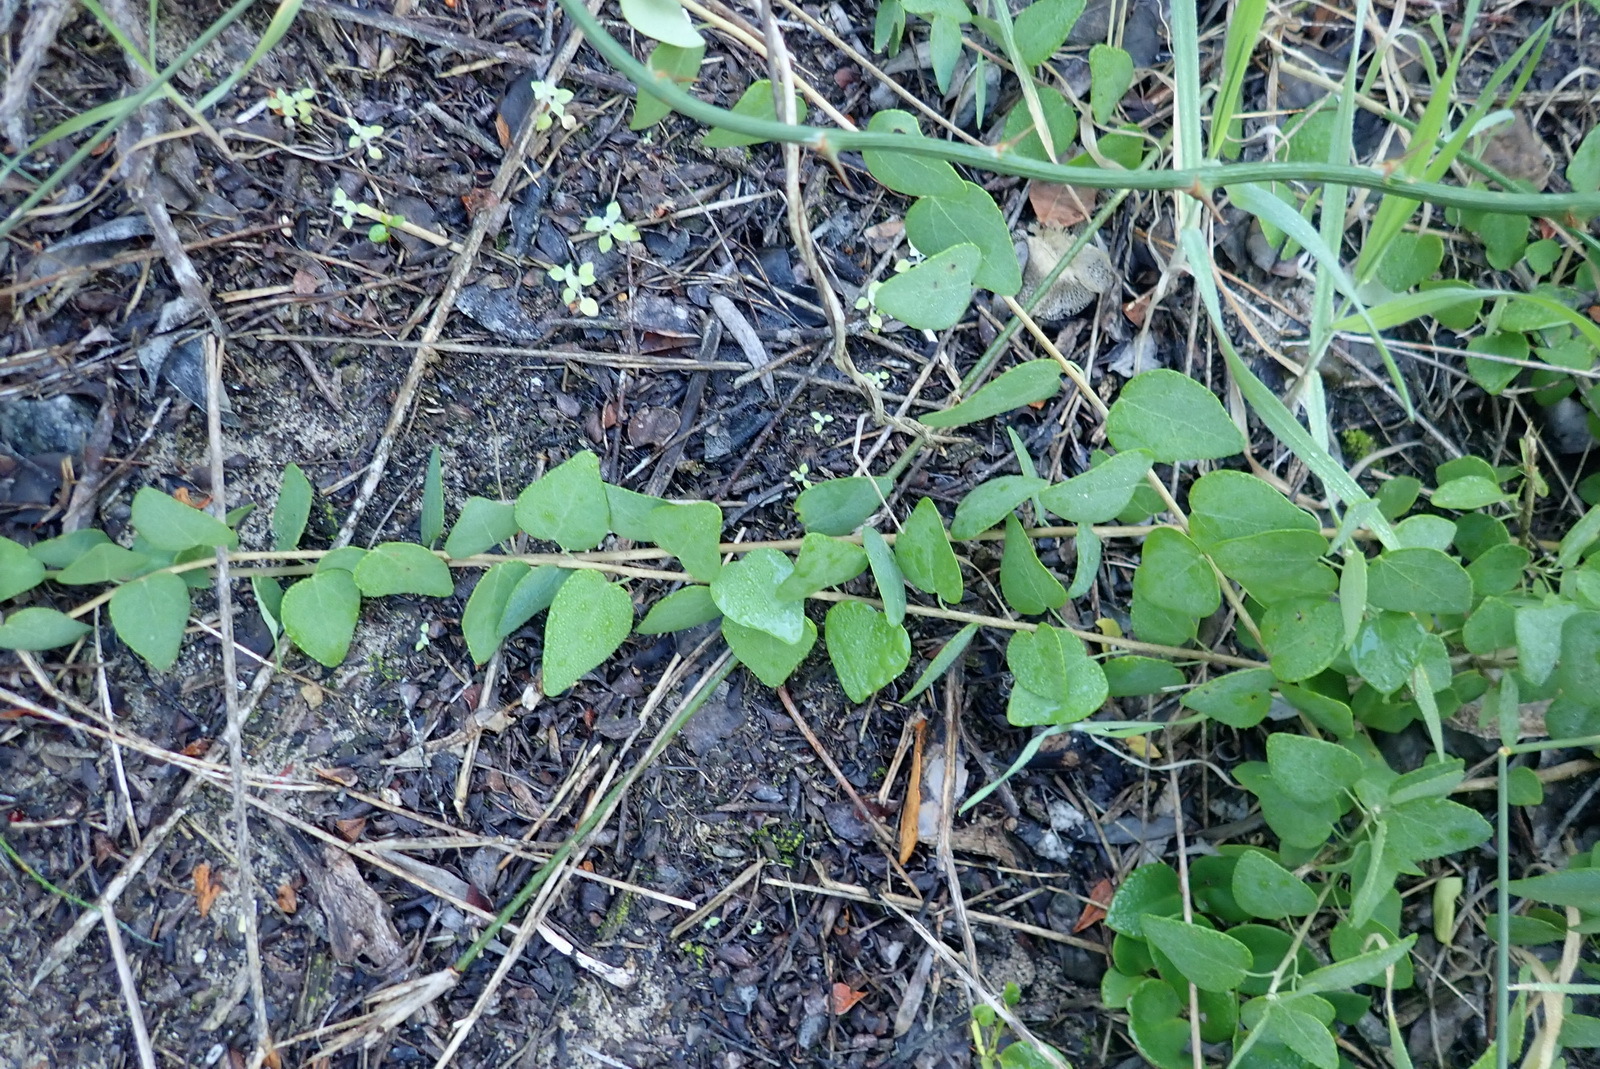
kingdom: Plantae
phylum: Tracheophyta
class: Magnoliopsida
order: Ranunculales
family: Menispermaceae
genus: Cissampelos
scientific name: Cissampelos capensis
